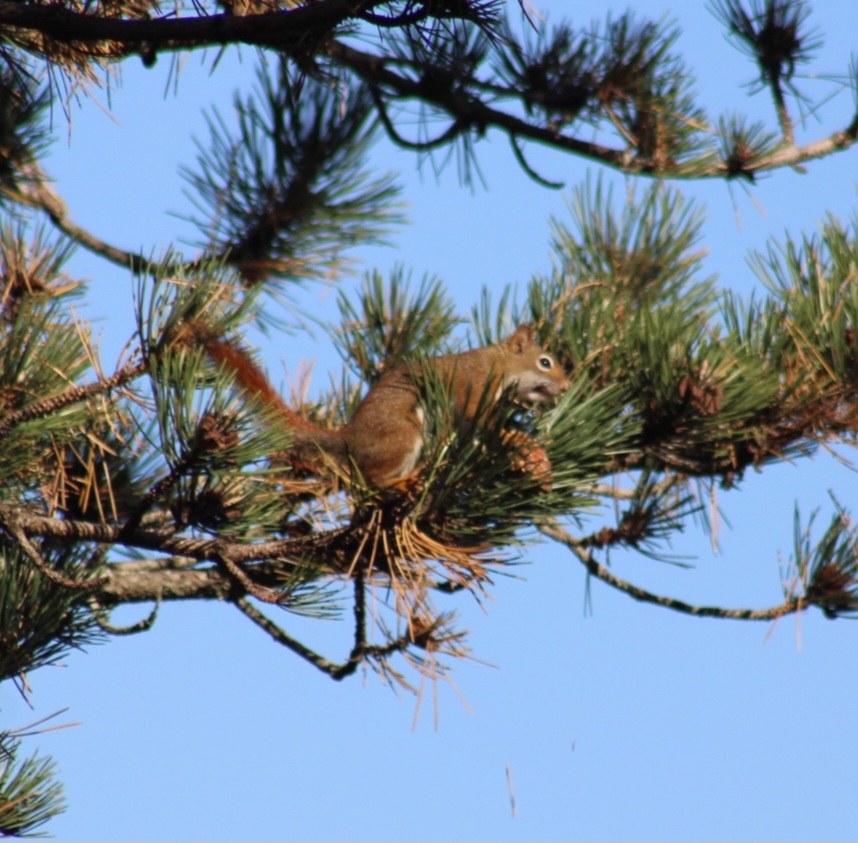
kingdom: Animalia
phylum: Chordata
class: Mammalia
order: Rodentia
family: Sciuridae
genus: Tamiasciurus
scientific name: Tamiasciurus hudsonicus
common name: Red squirrel
